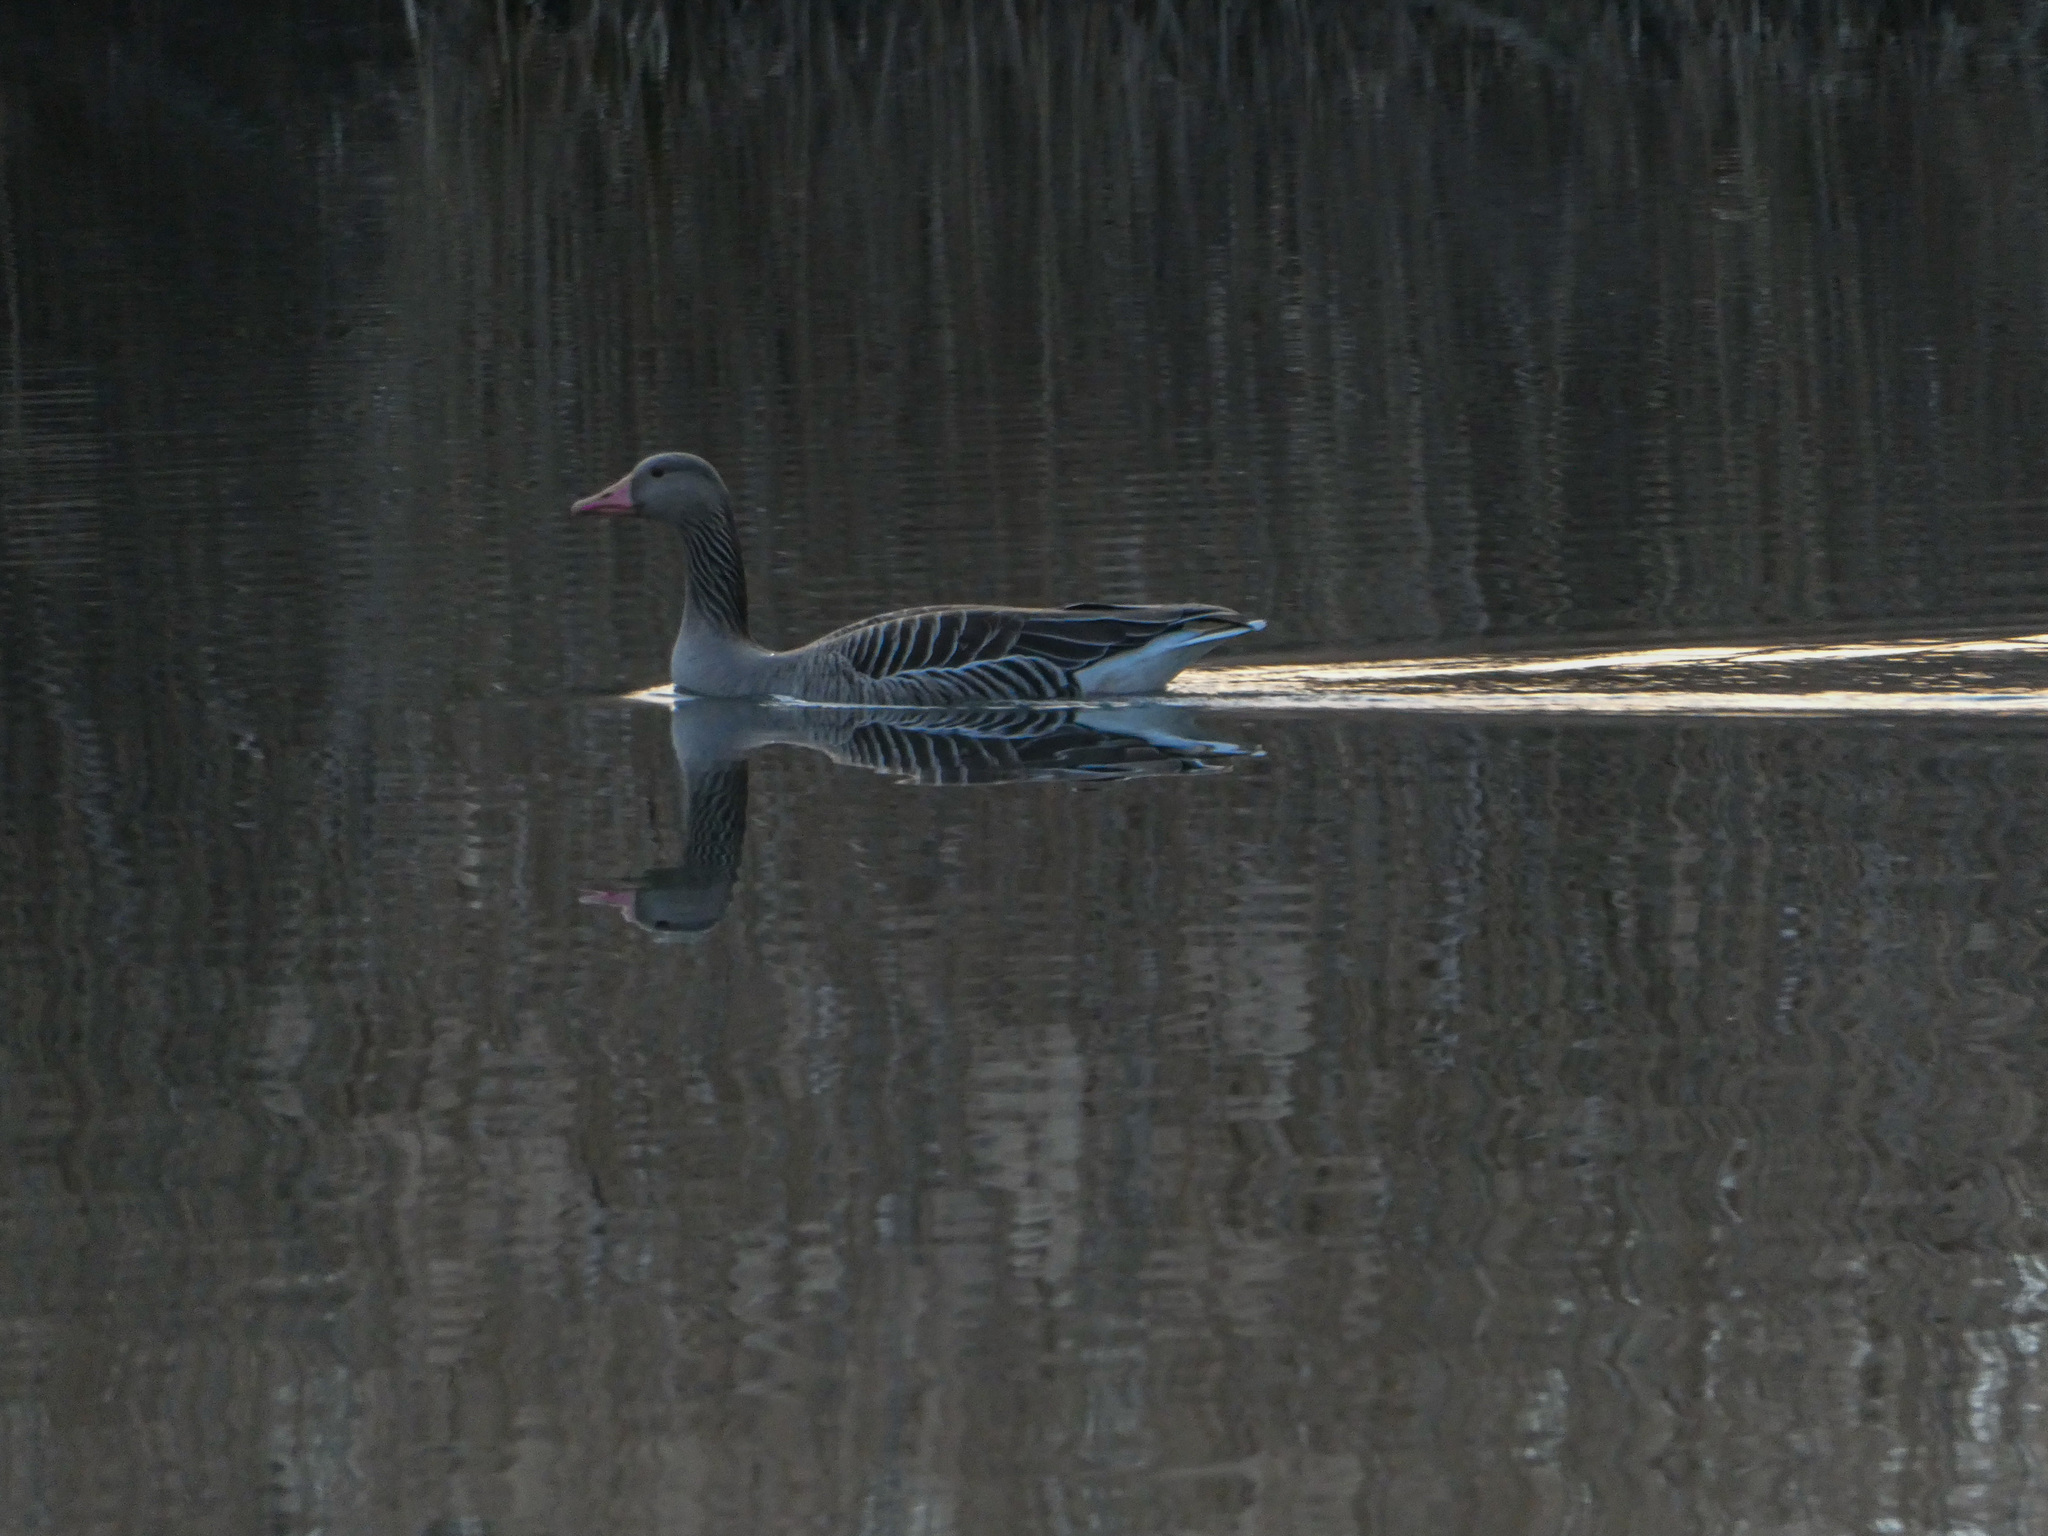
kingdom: Animalia
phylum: Chordata
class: Aves
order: Anseriformes
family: Anatidae
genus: Anser
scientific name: Anser anser
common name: Greylag goose
